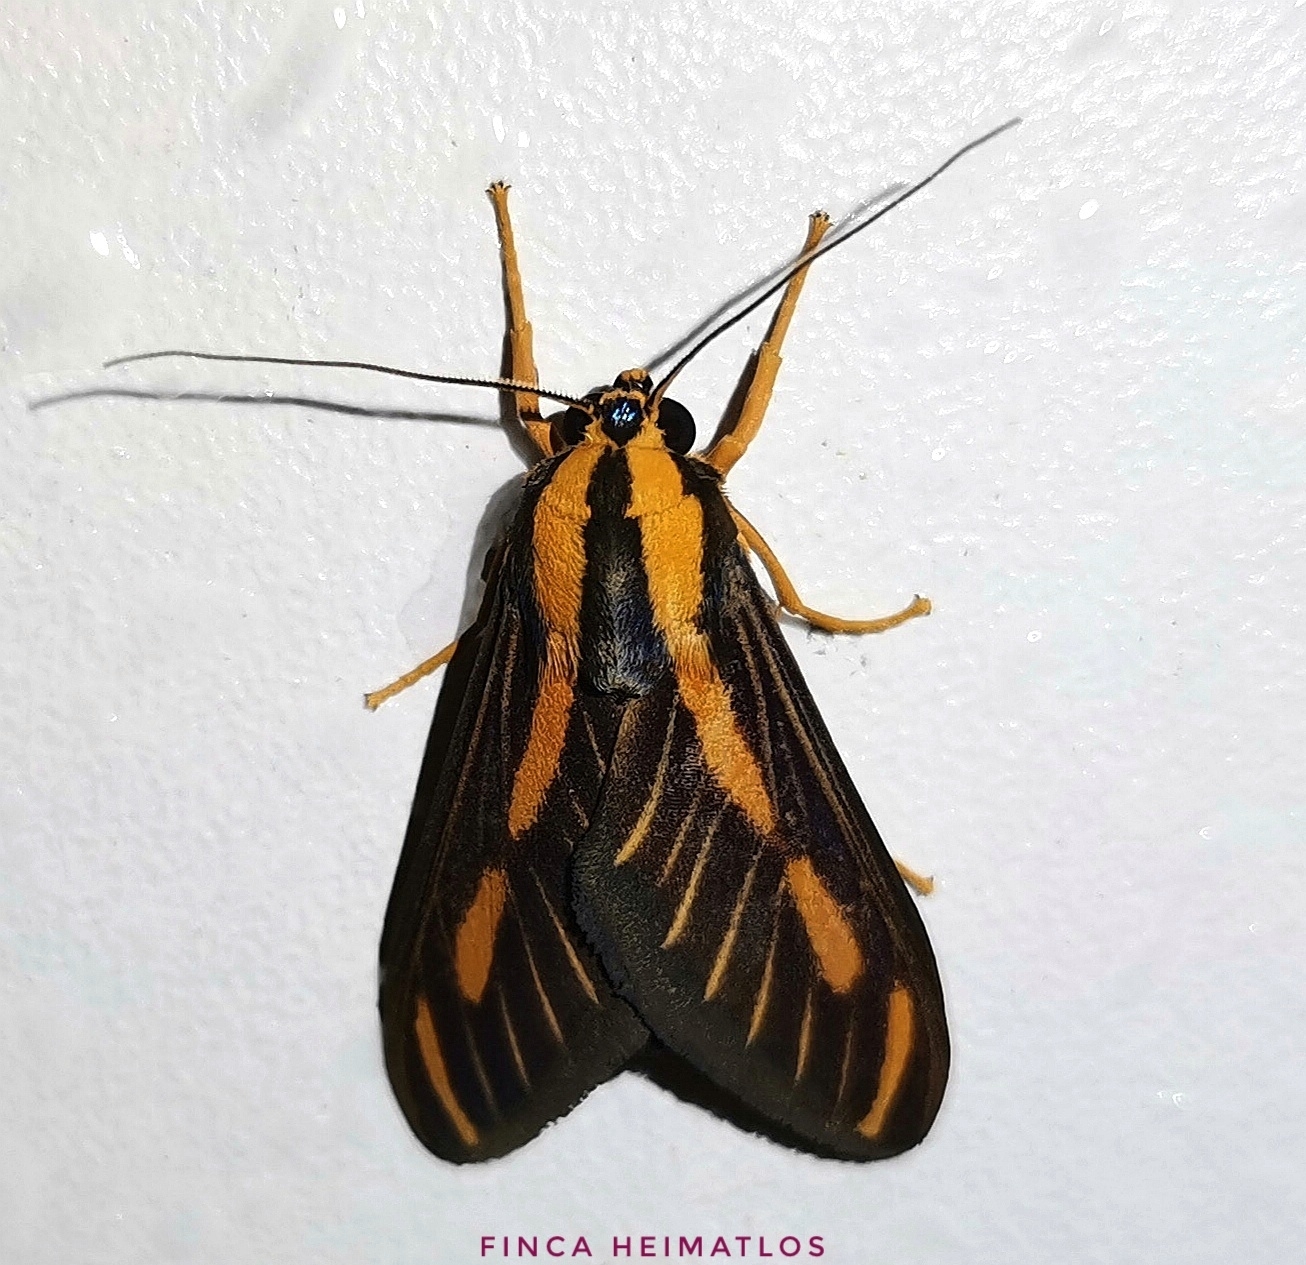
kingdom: Animalia
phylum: Arthropoda
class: Insecta
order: Lepidoptera
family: Erebidae
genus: Ormetica
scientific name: Ormetica sypilus
